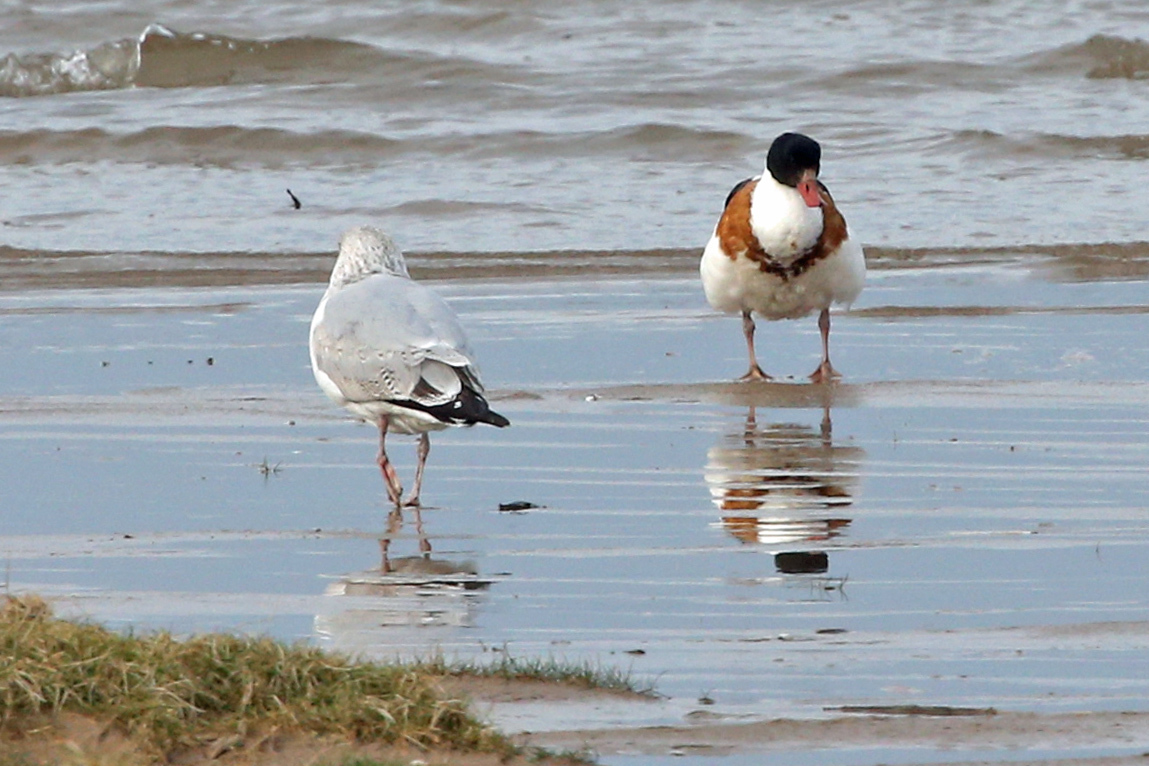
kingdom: Animalia
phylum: Chordata
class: Aves
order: Anseriformes
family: Anatidae
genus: Tadorna
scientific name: Tadorna tadorna
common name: Common shelduck
